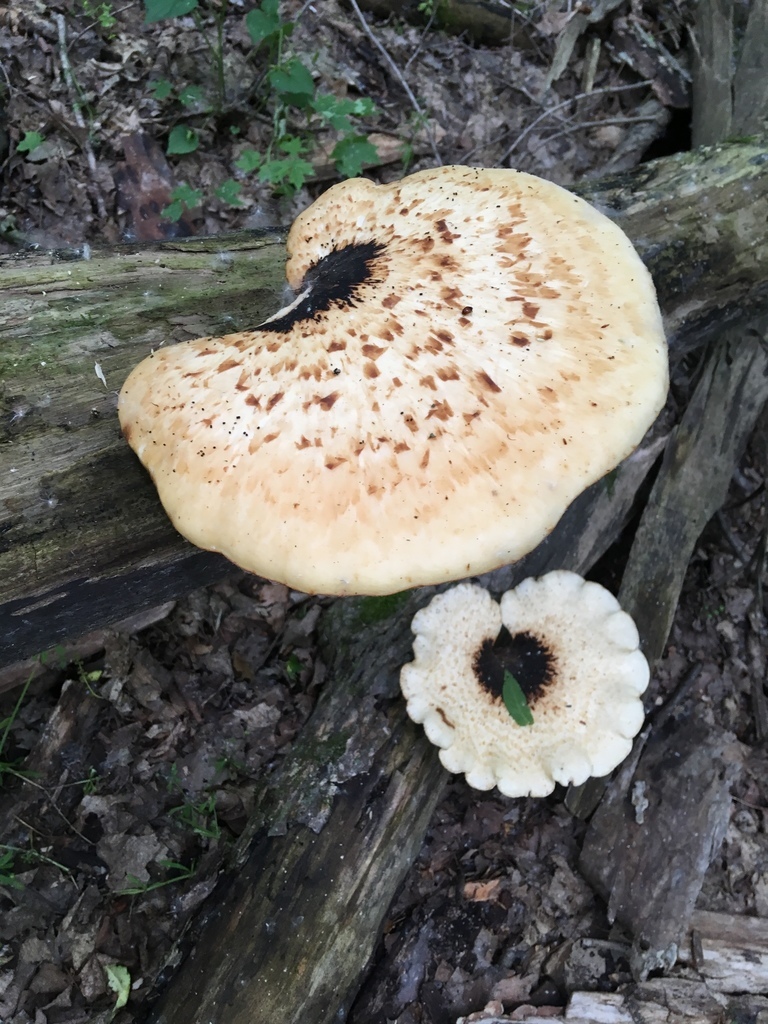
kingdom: Fungi
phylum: Basidiomycota
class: Agaricomycetes
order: Polyporales
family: Polyporaceae
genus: Cerioporus
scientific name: Cerioporus squamosus
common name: Dryad's saddle
